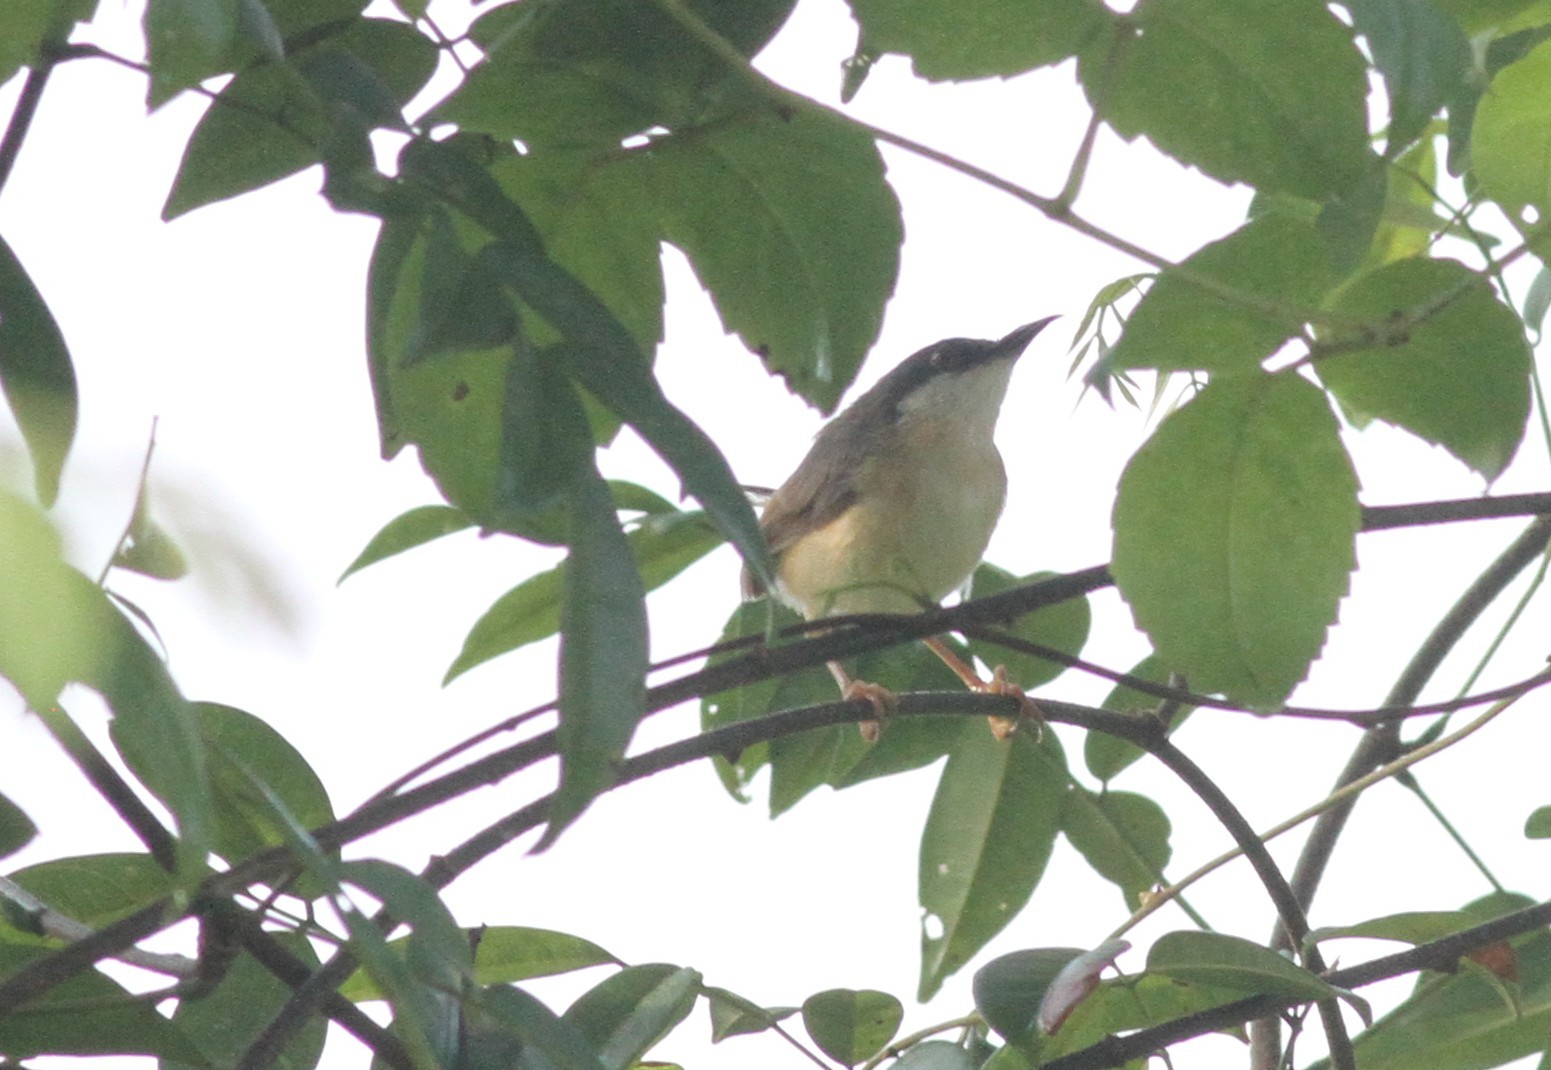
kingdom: Animalia
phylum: Chordata
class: Aves
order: Passeriformes
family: Cisticolidae
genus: Prinia
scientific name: Prinia socialis
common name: Ashy prinia
